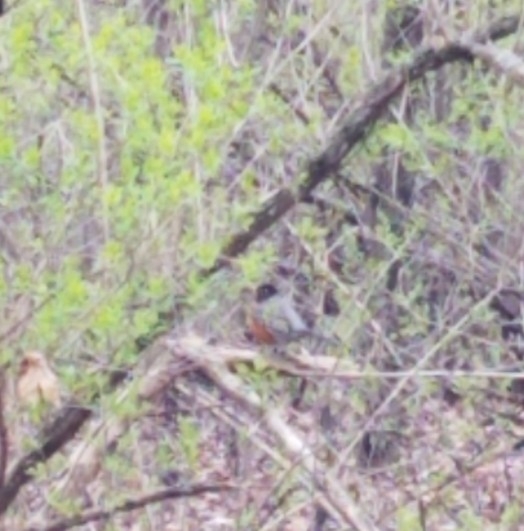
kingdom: Animalia
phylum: Chordata
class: Aves
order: Passeriformes
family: Turdidae
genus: Turdus
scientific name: Turdus migratorius
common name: American robin
